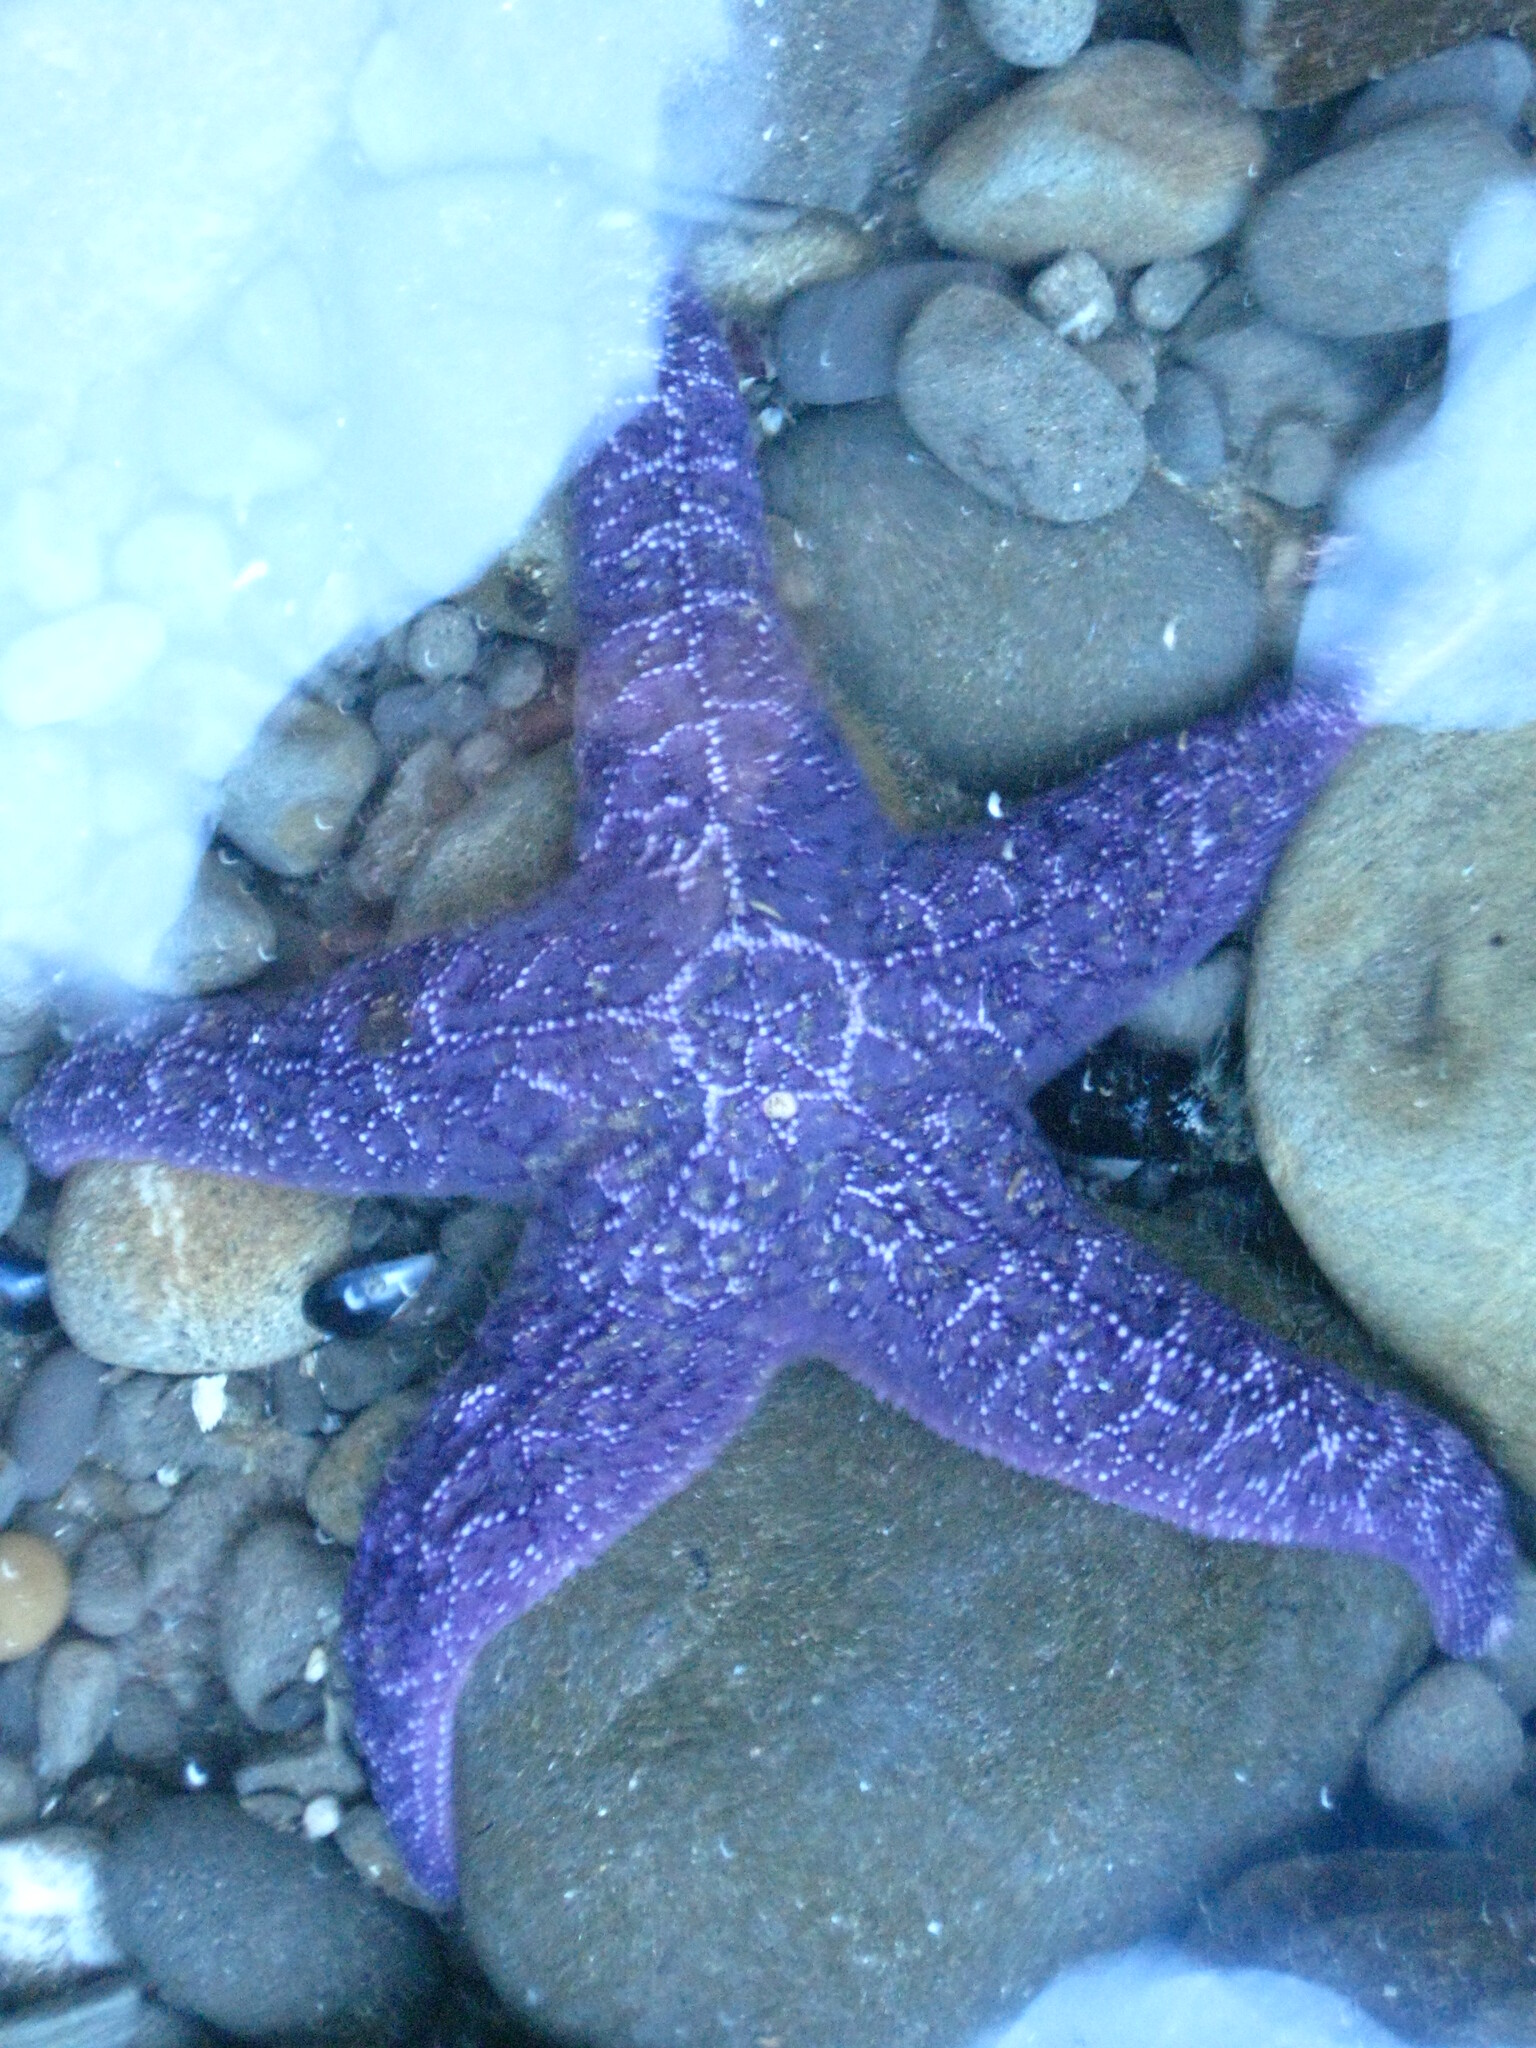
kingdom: Animalia
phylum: Echinodermata
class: Asteroidea
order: Forcipulatida
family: Asteriidae
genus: Pisaster
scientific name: Pisaster ochraceus
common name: Ochre stars
